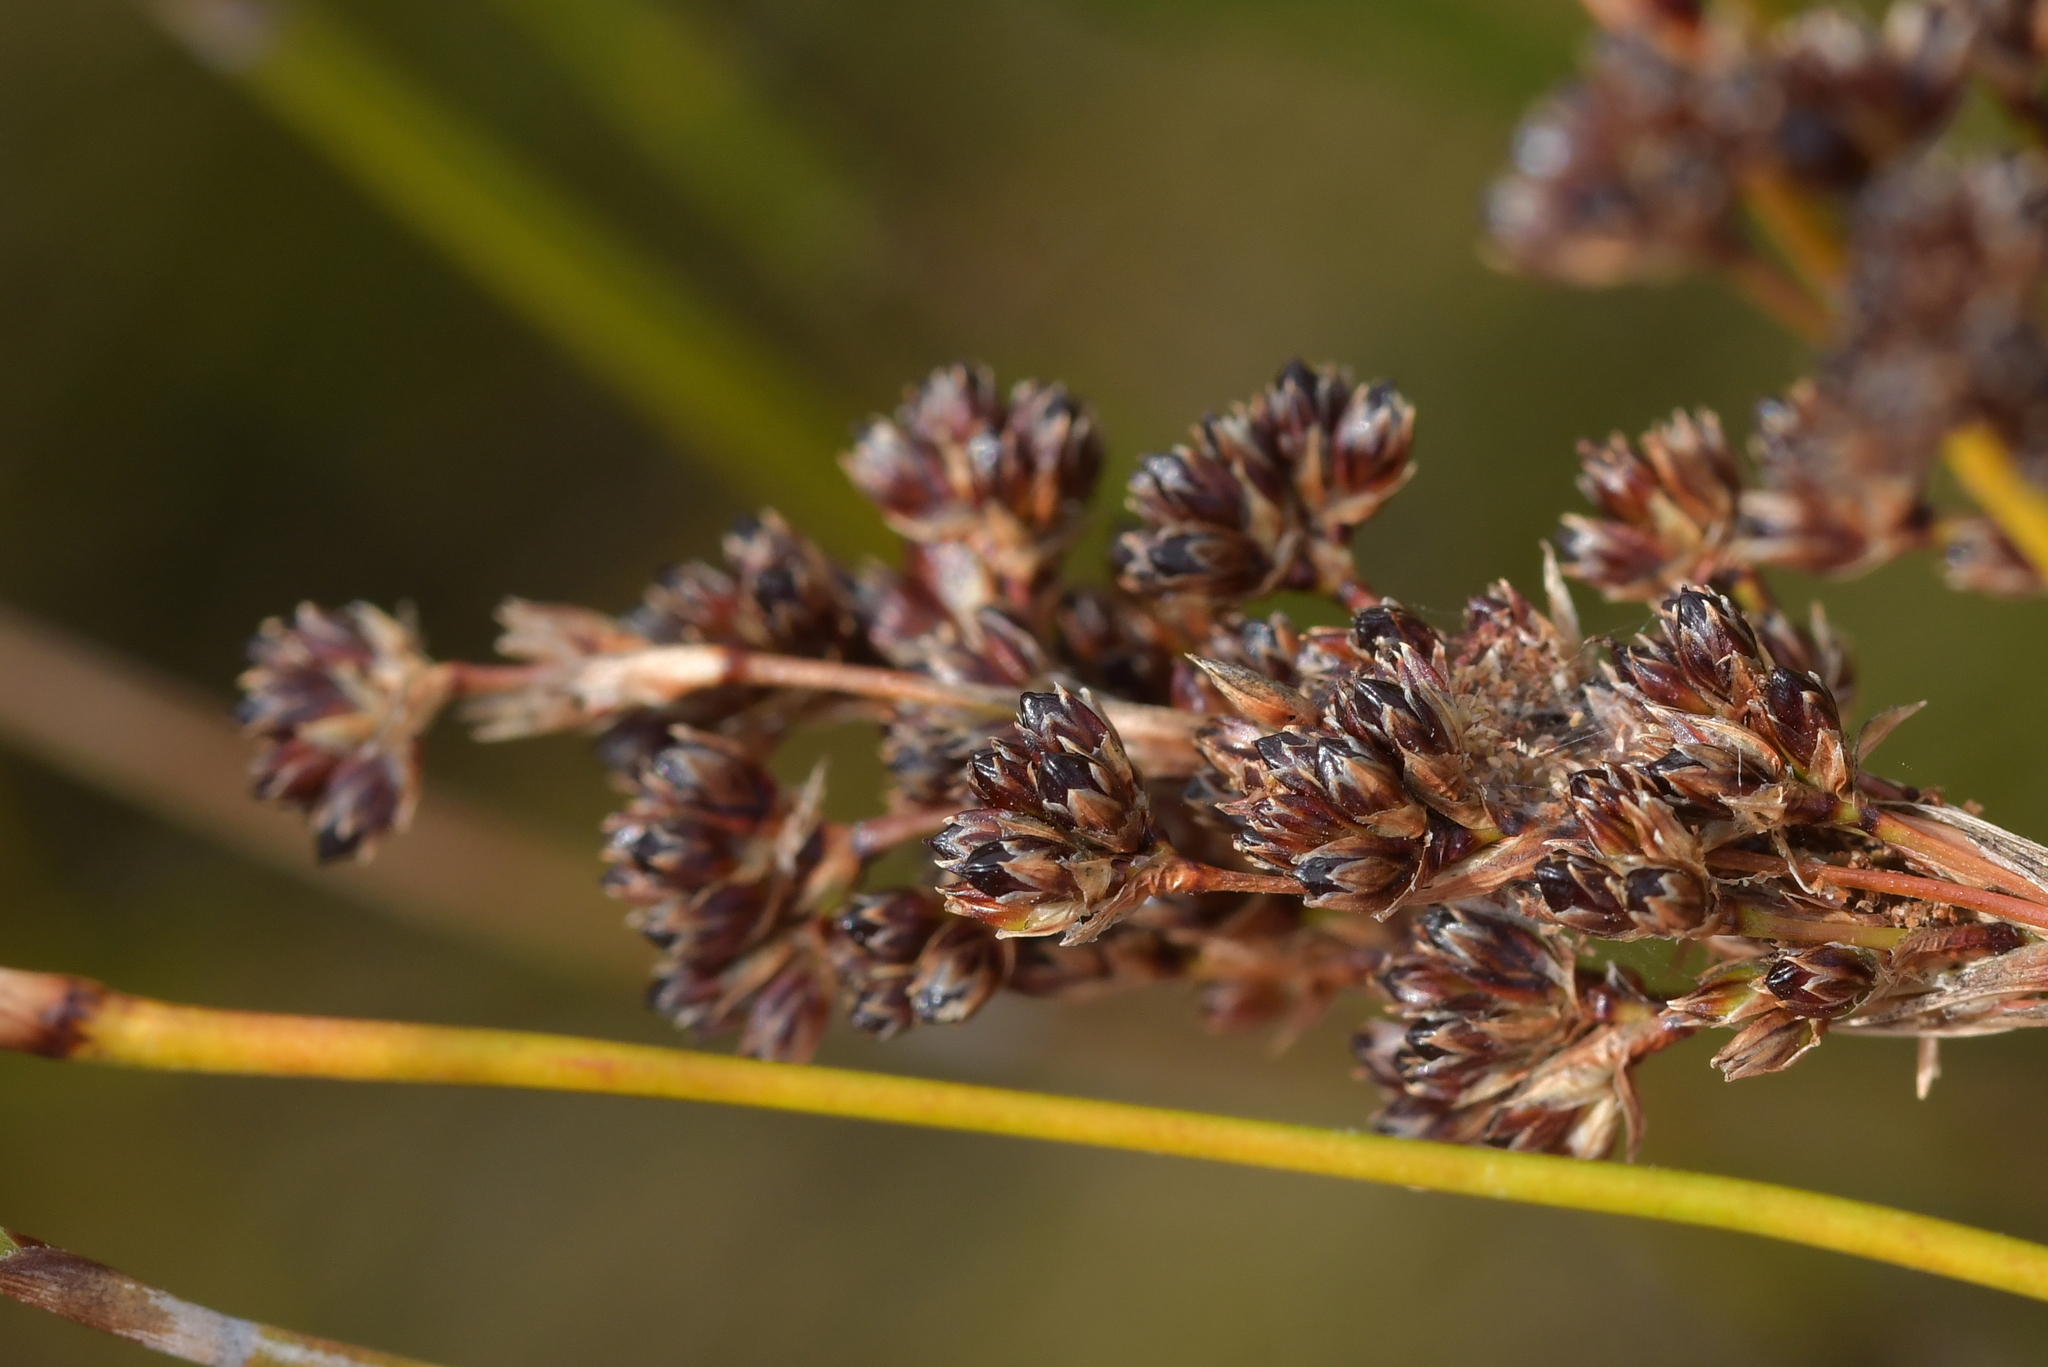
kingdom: Plantae
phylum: Tracheophyta
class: Liliopsida
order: Poales
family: Juncaceae
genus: Juncus
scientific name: Juncus kraussii
